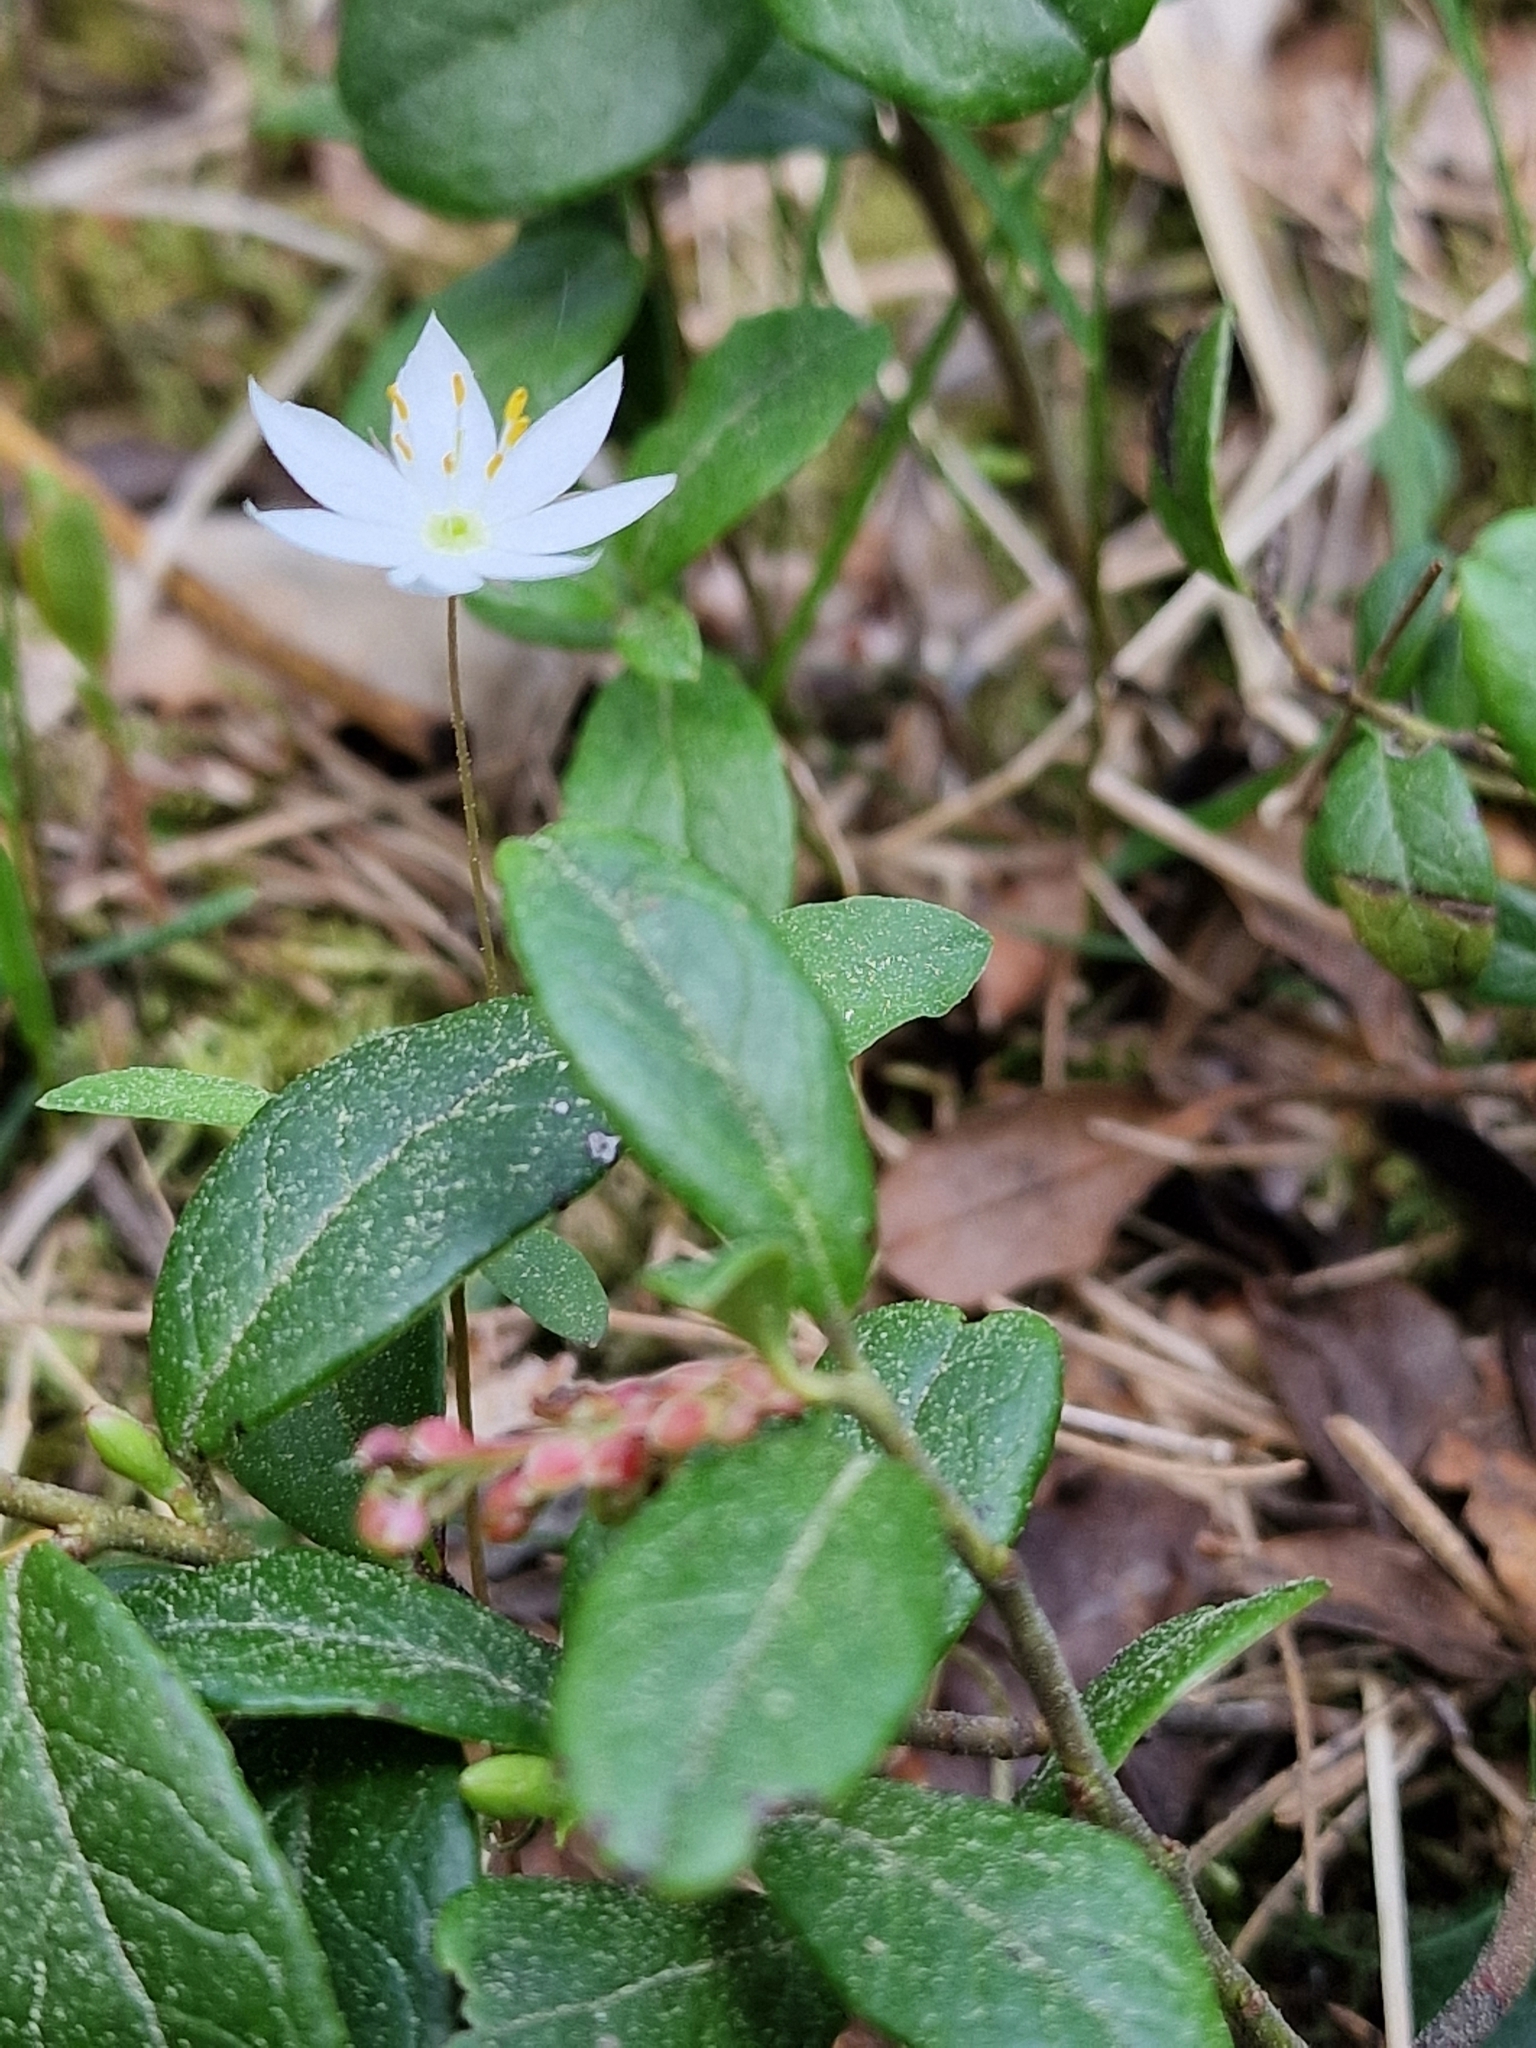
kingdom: Plantae
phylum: Tracheophyta
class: Magnoliopsida
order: Ericales
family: Primulaceae
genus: Lysimachia
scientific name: Lysimachia europaea
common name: Arctic starflower
